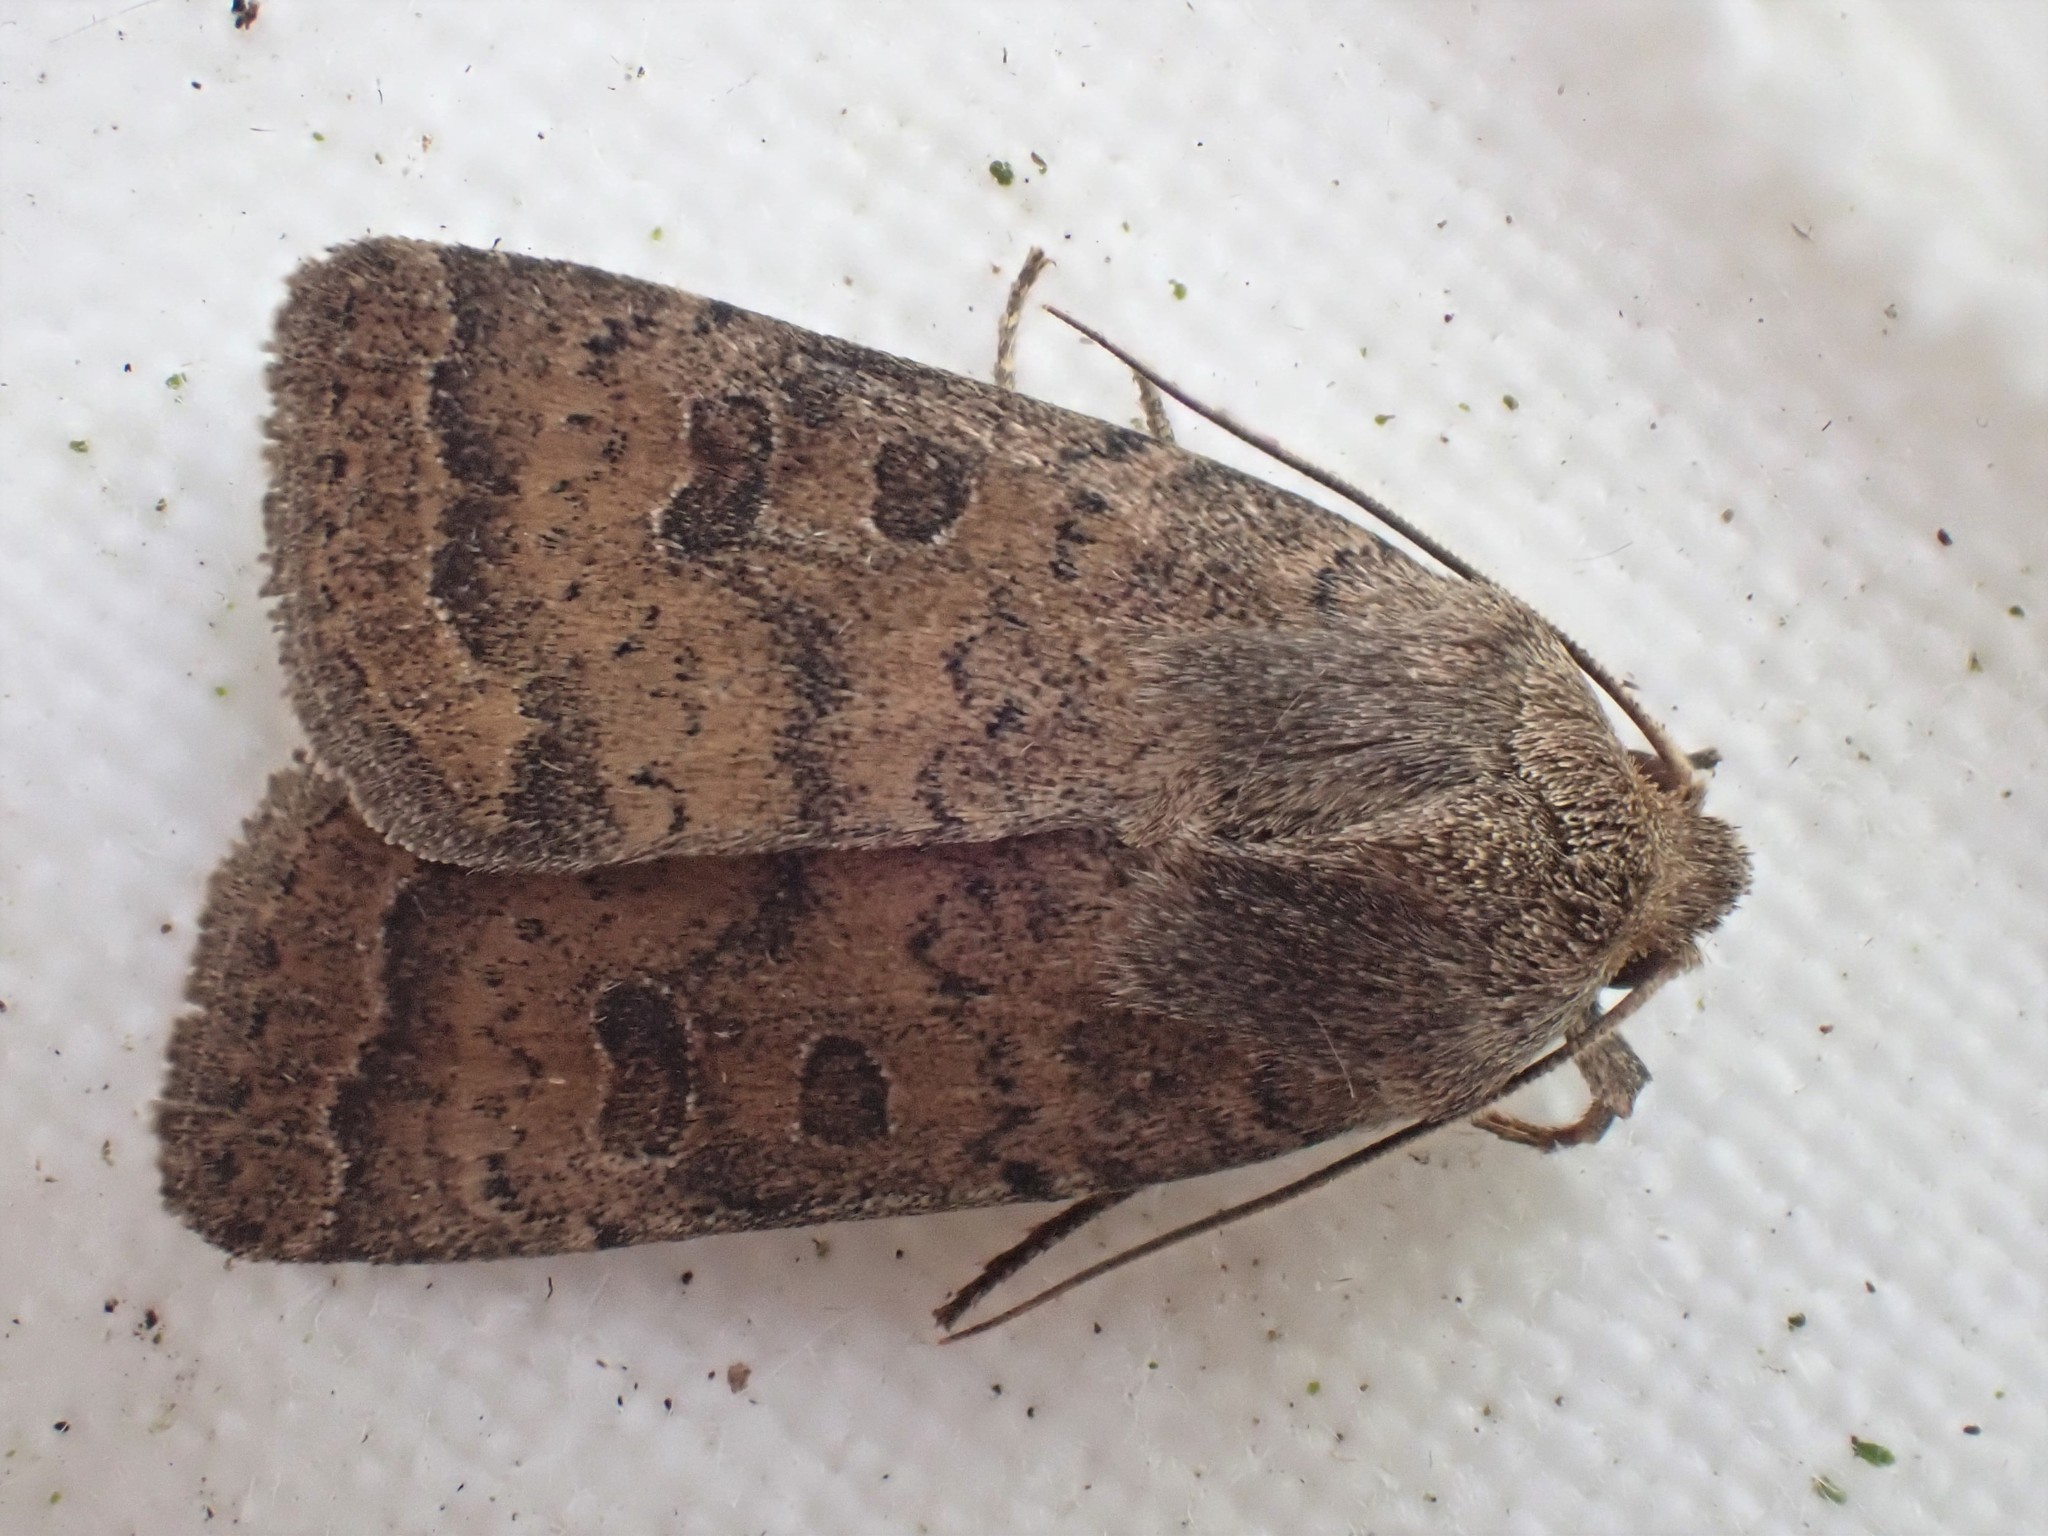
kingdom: Animalia
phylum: Arthropoda
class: Insecta
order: Lepidoptera
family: Noctuidae
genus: Hoplodrina
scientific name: Hoplodrina octogenaria
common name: Uncertain
